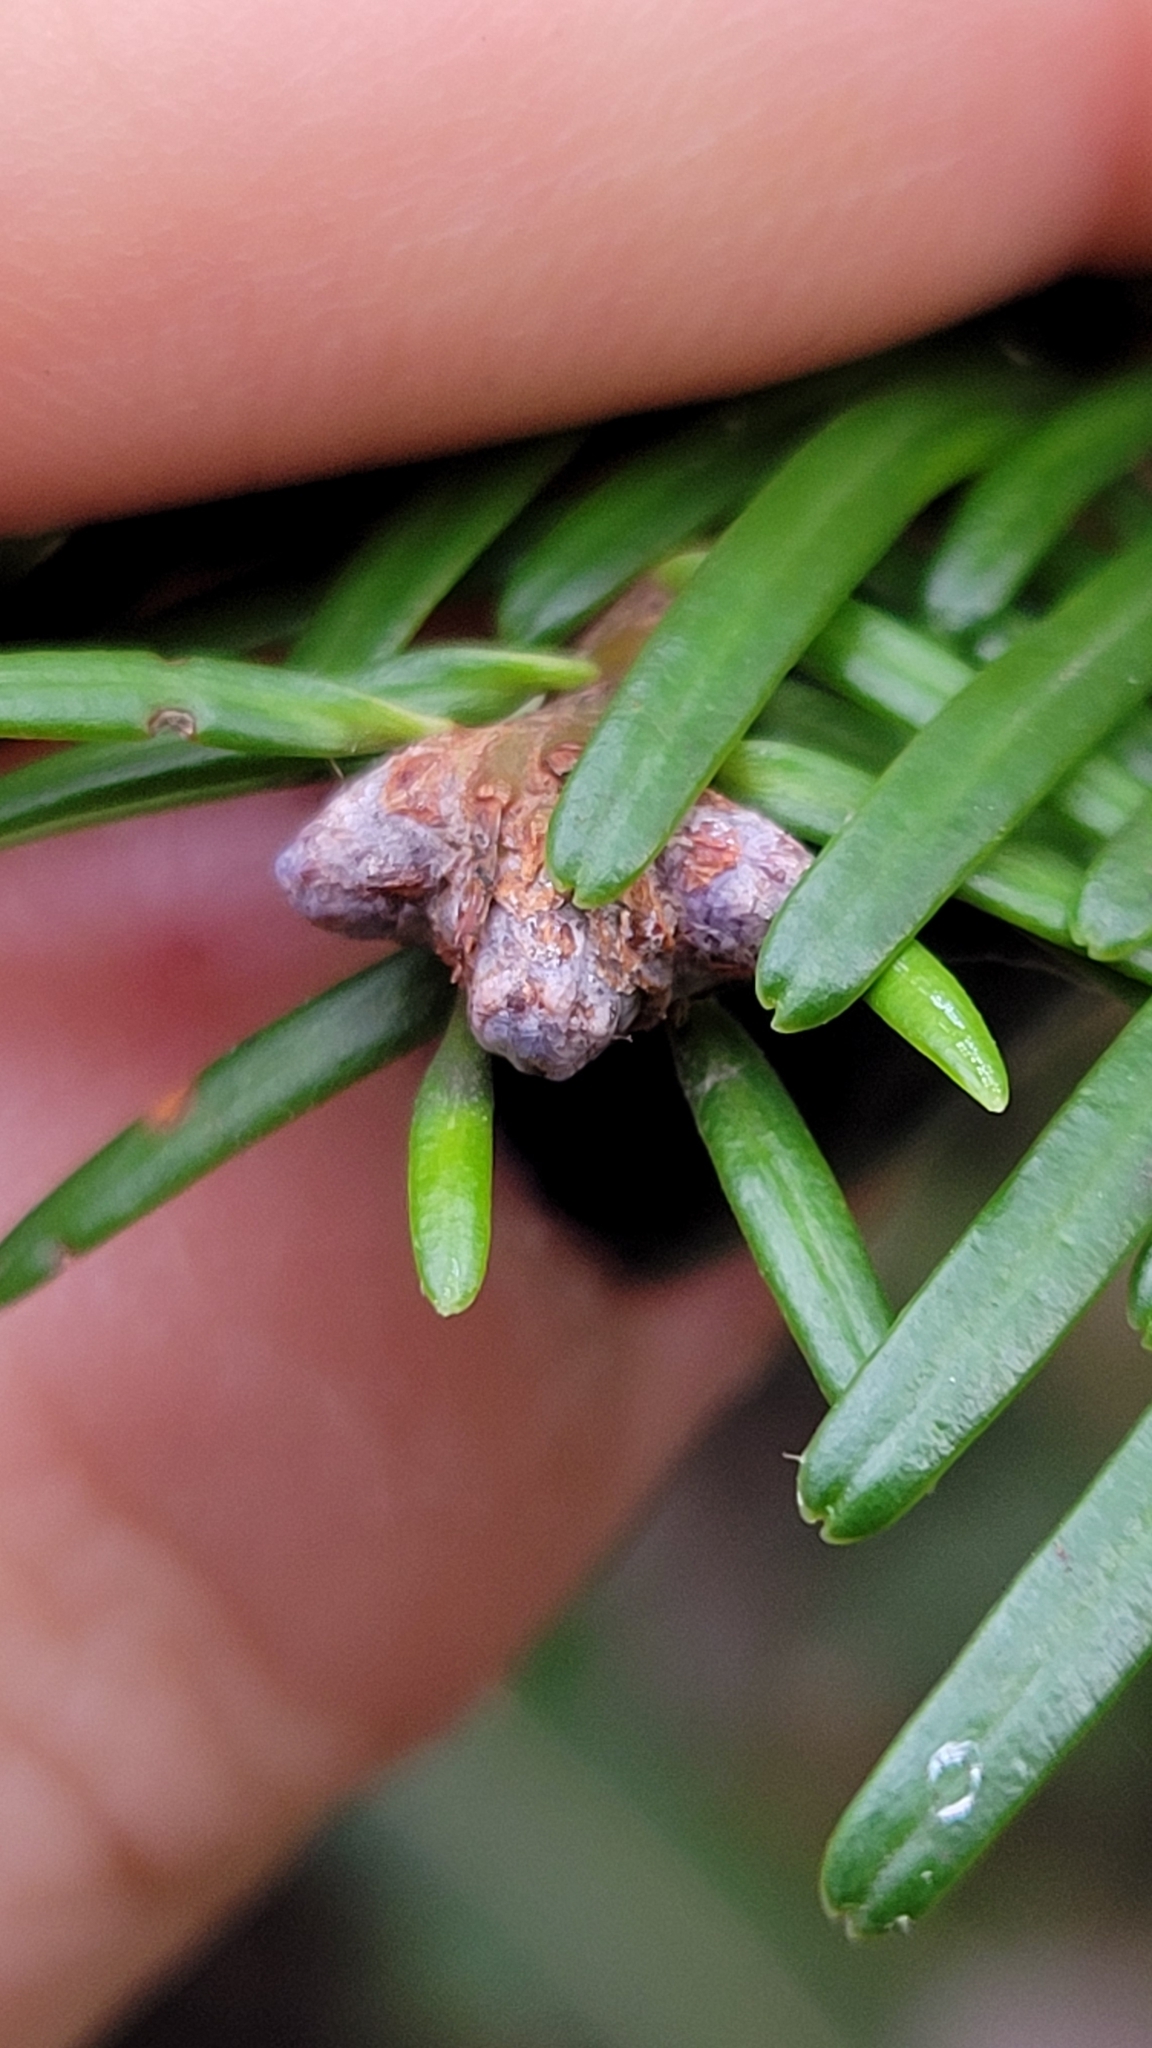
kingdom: Plantae
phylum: Tracheophyta
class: Pinopsida
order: Pinales
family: Pinaceae
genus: Abies
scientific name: Abies grandis
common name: Giant fir
